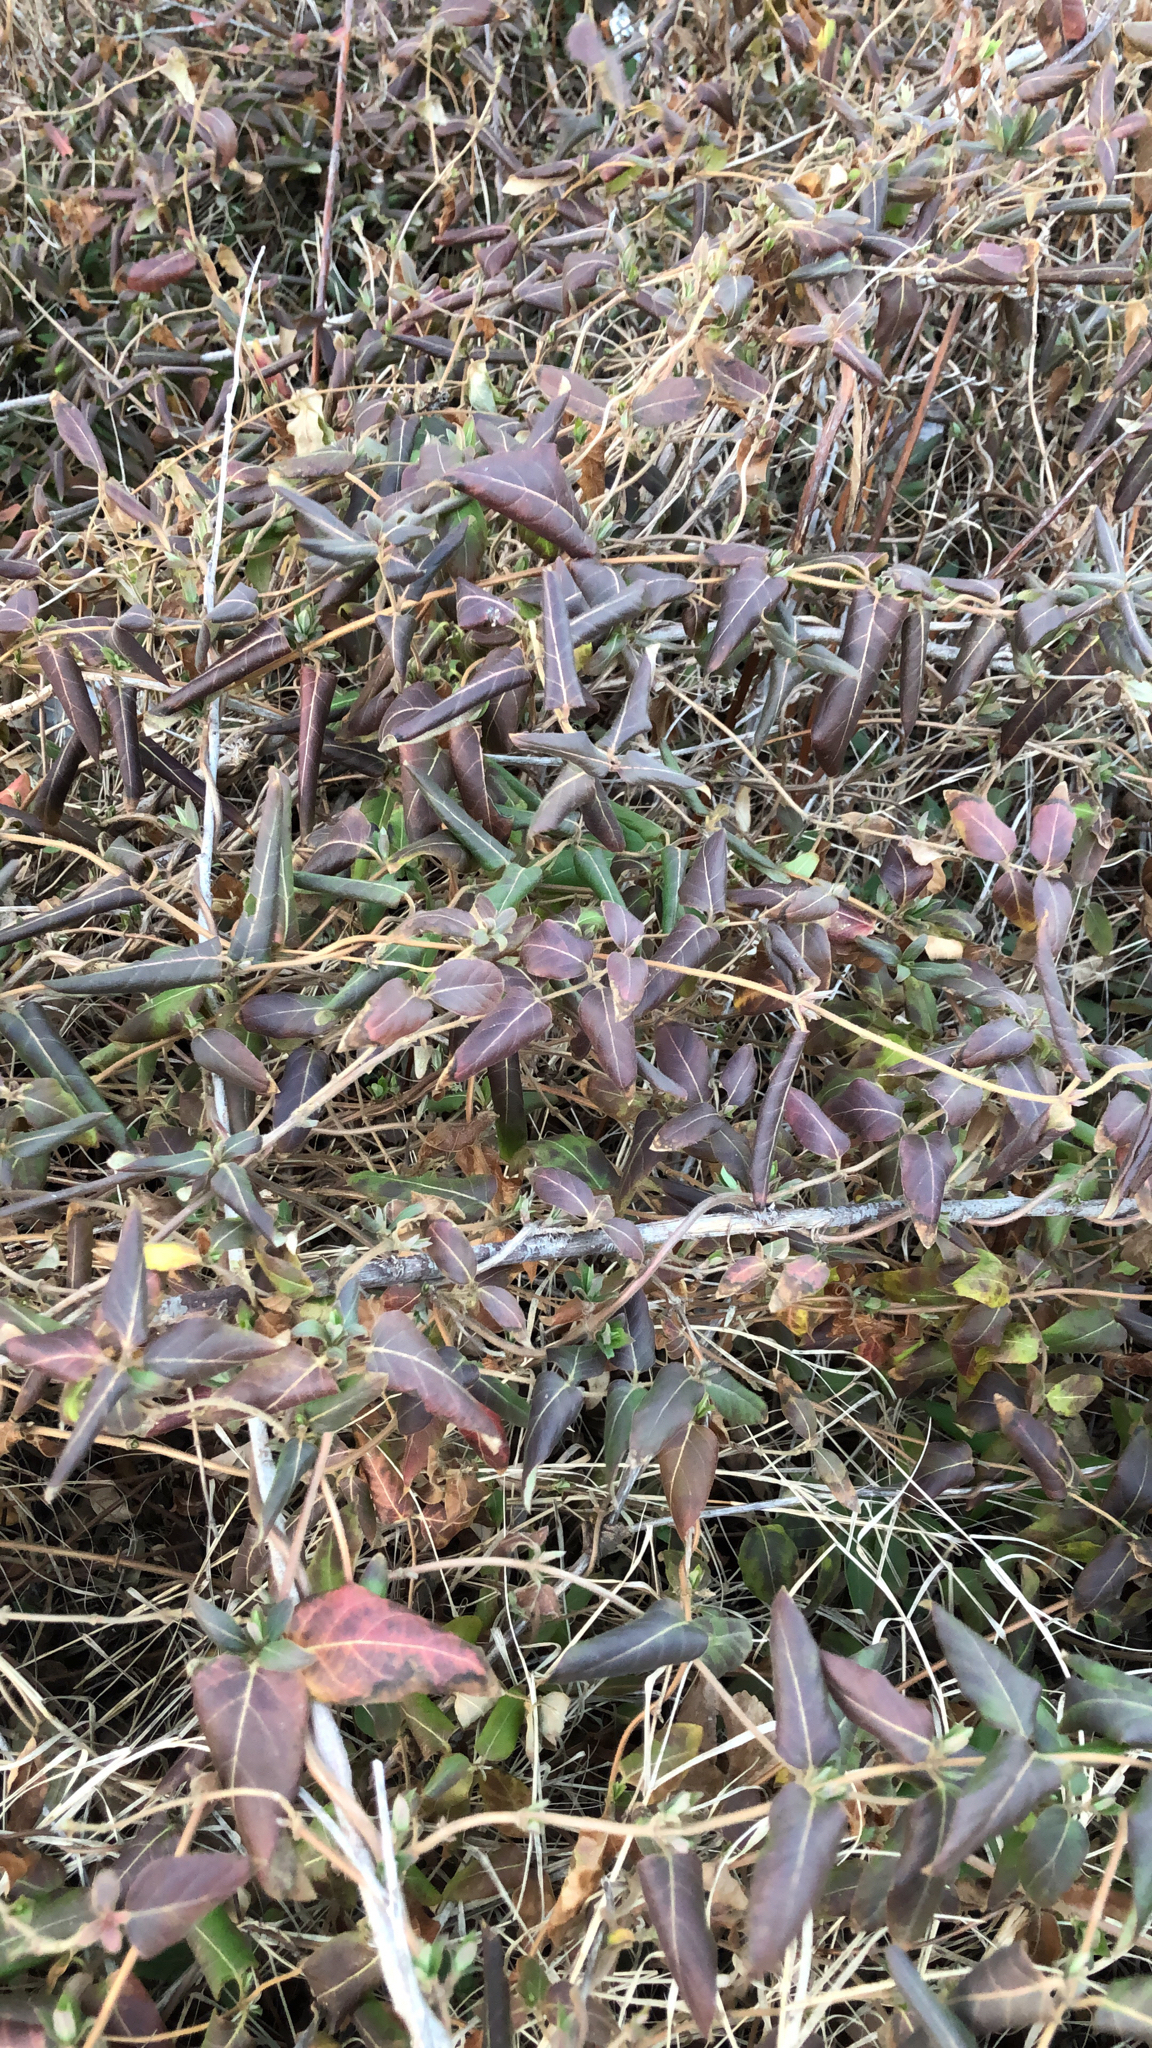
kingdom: Plantae
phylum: Tracheophyta
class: Magnoliopsida
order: Dipsacales
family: Caprifoliaceae
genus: Lonicera
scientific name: Lonicera japonica
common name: Japanese honeysuckle
